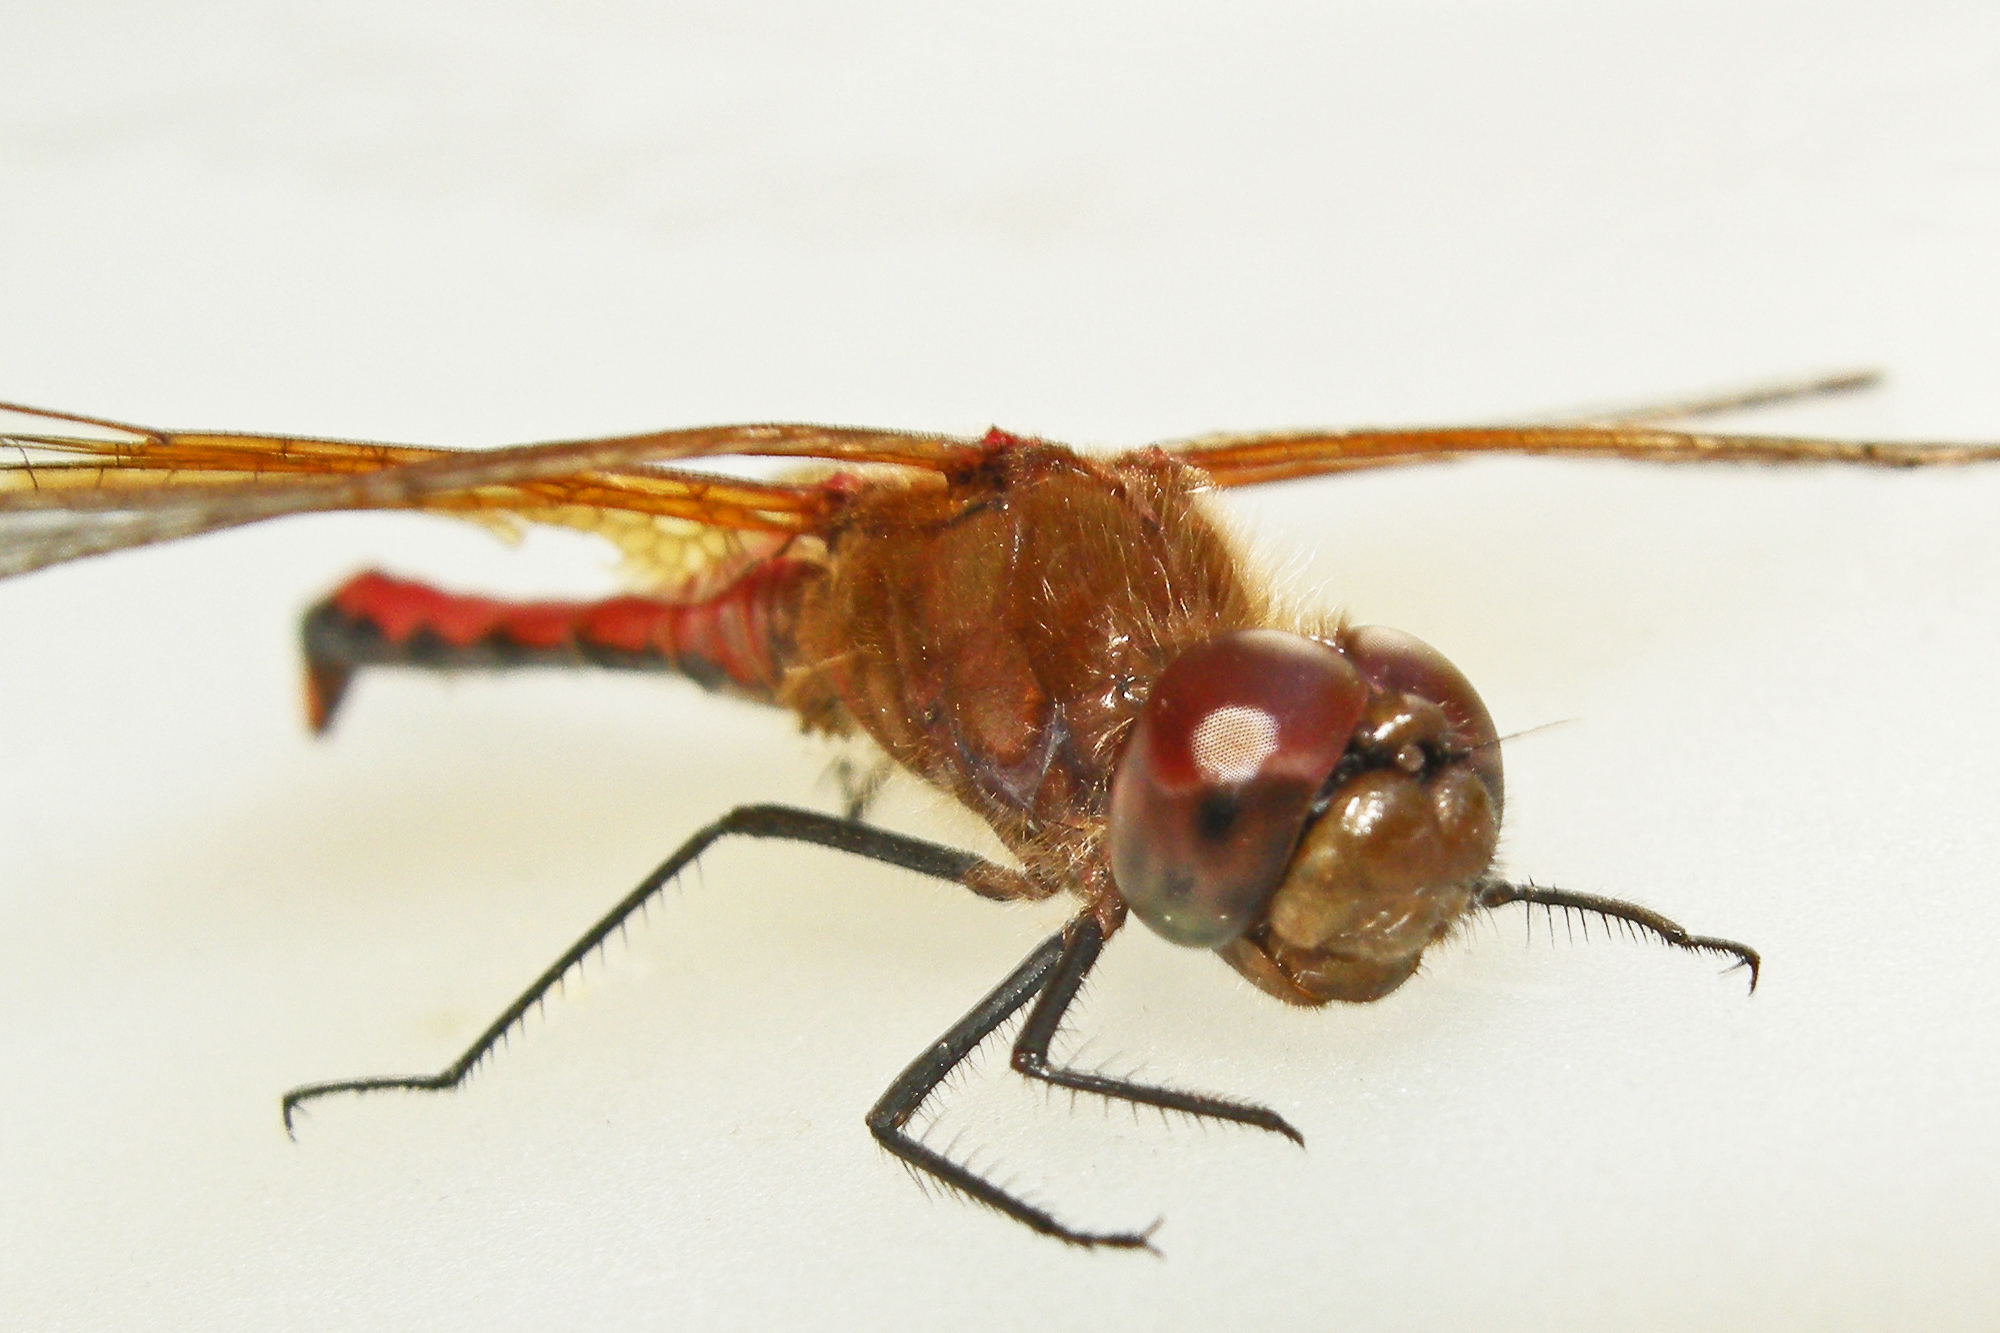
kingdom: Animalia
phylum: Arthropoda
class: Insecta
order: Odonata
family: Libellulidae
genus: Sympetrum
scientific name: Sympetrum semicinctum
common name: Band-winged meadowhawk
